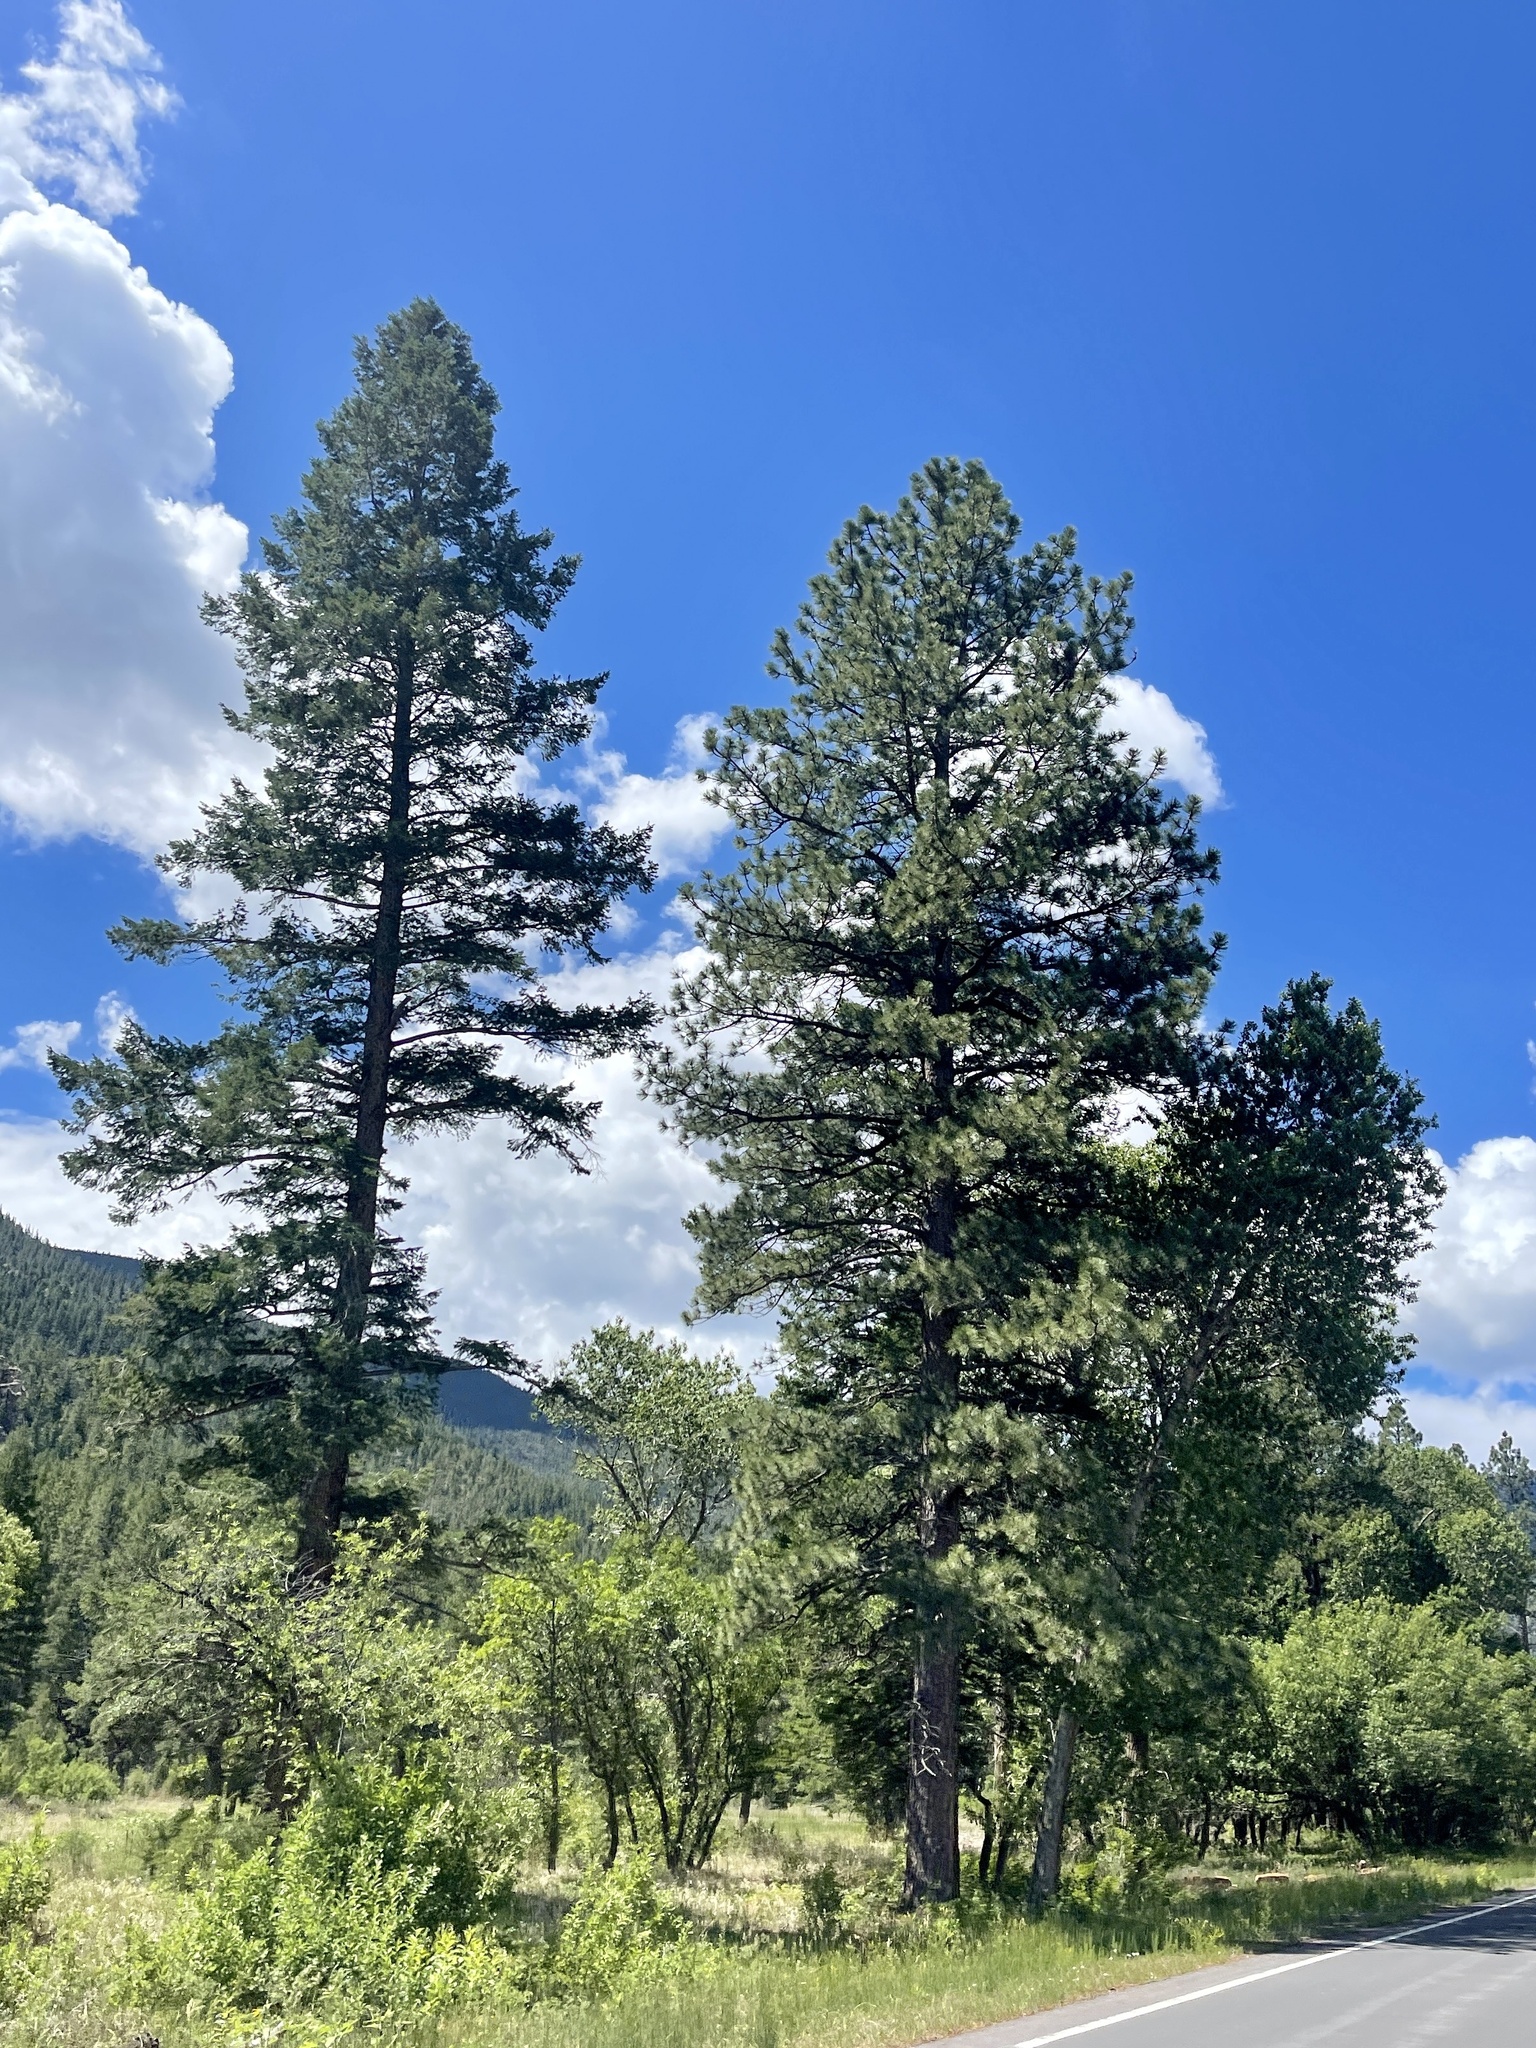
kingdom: Plantae
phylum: Tracheophyta
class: Pinopsida
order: Pinales
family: Pinaceae
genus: Pinus
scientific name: Pinus ponderosa
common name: Western yellow-pine
